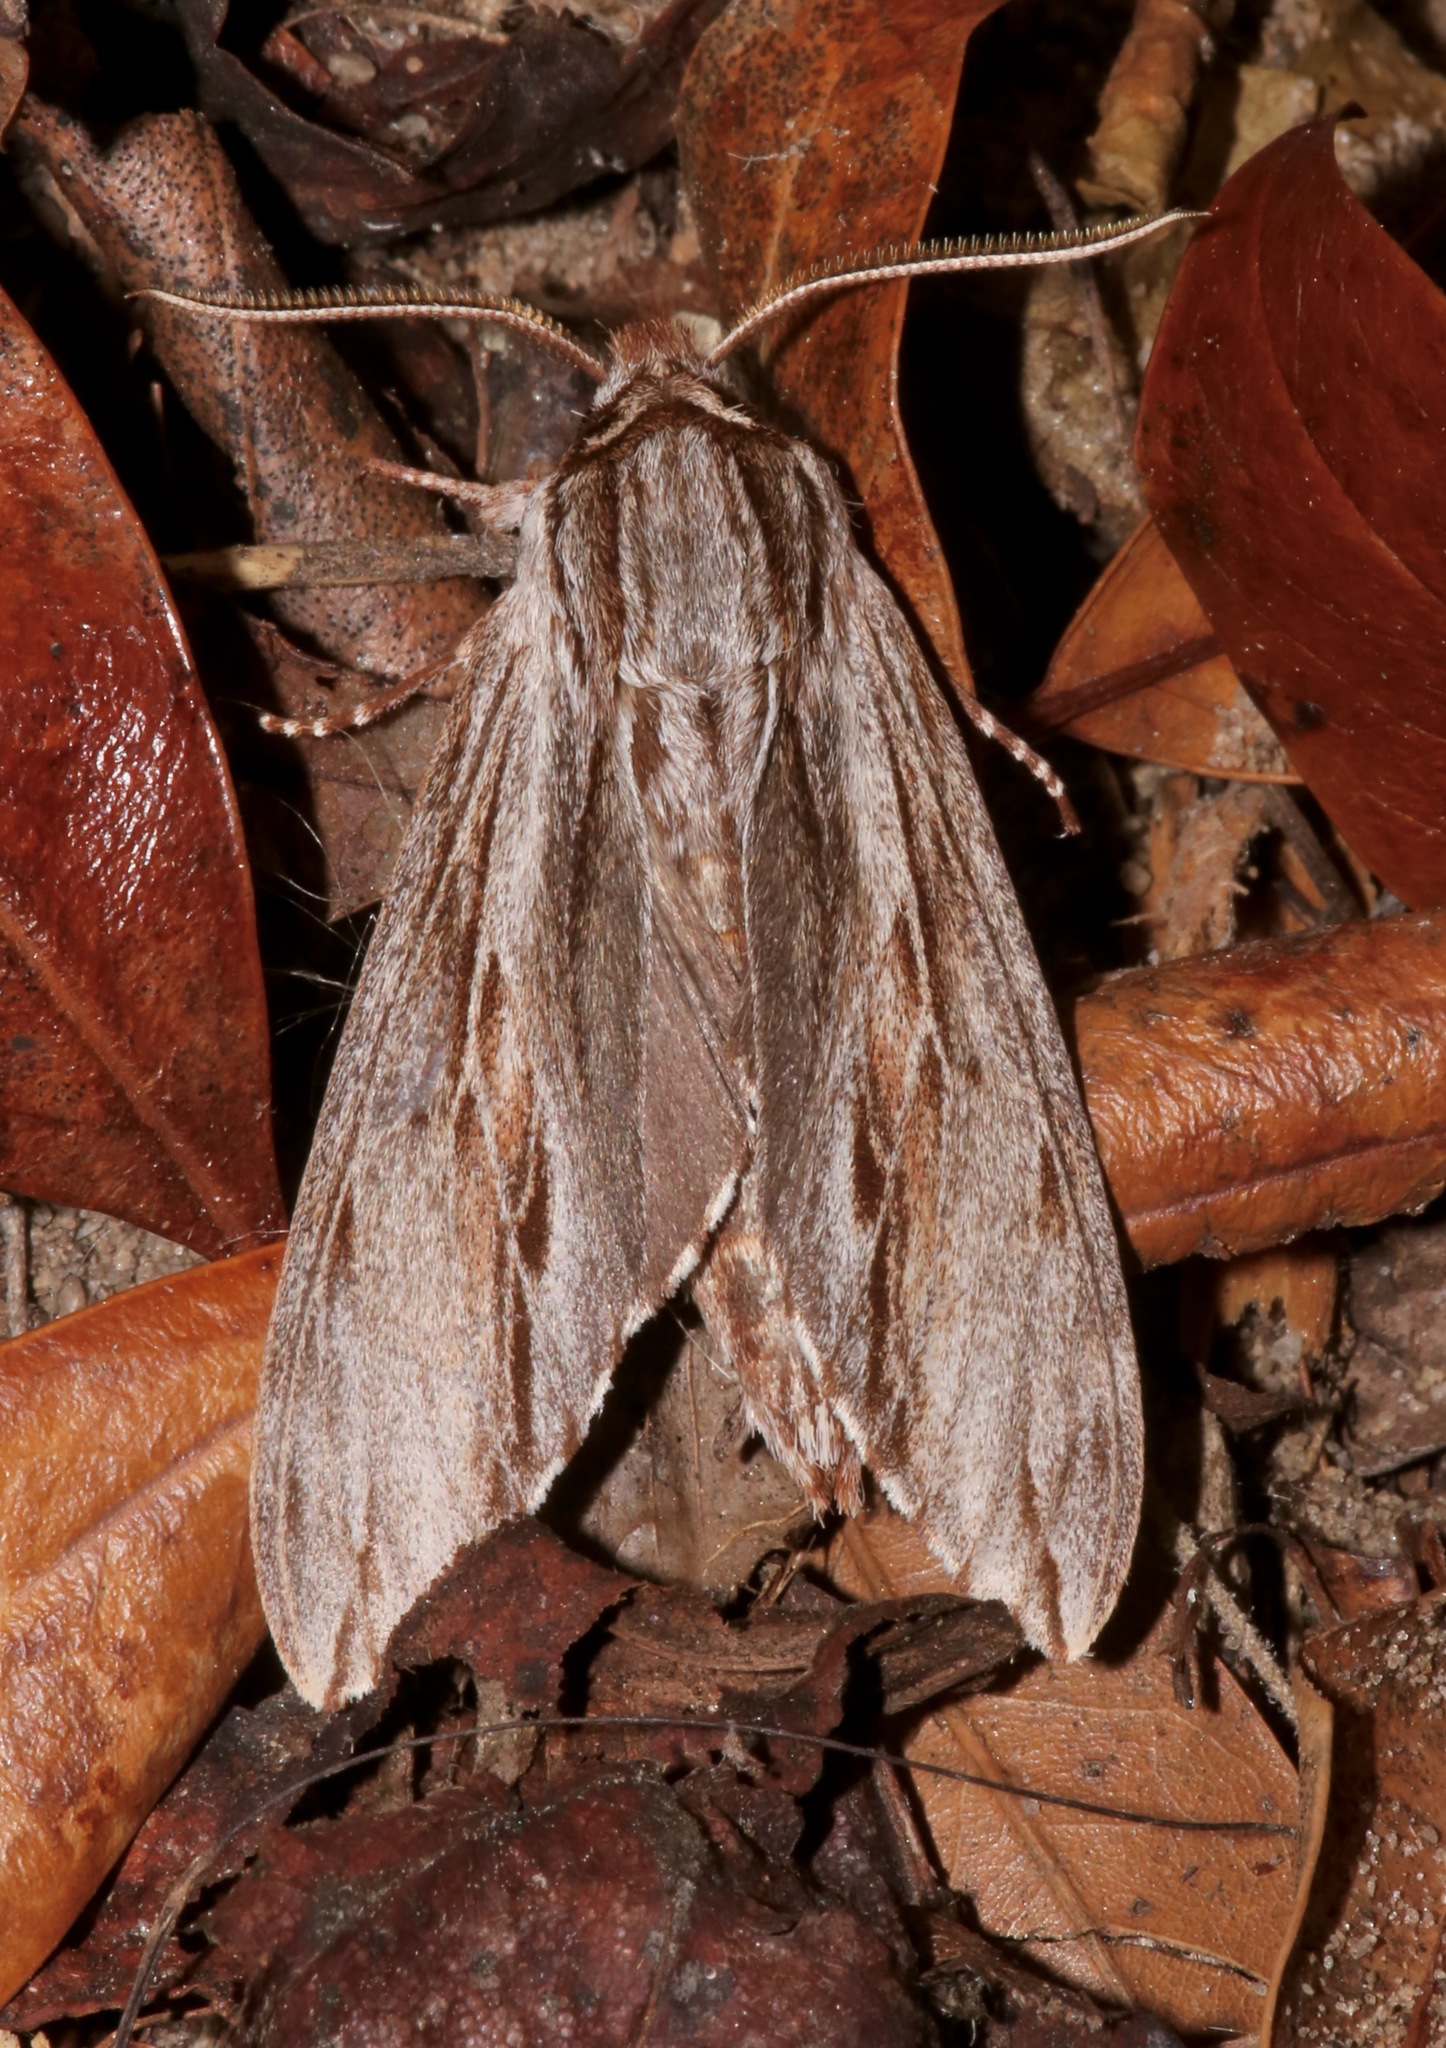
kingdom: Animalia
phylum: Arthropoda
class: Insecta
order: Lepidoptera
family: Sphingidae
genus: Isoparce
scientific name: Isoparce cupressi
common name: Cypress sphinx
